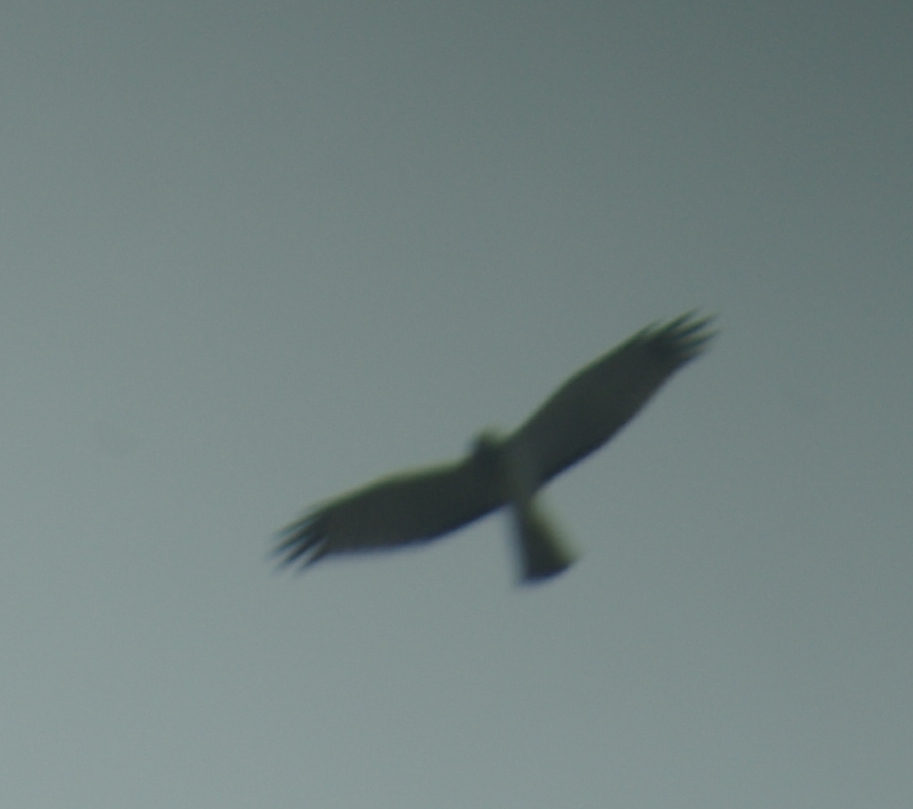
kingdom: Animalia
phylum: Chordata
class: Aves
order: Accipitriformes
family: Accipitridae
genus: Circus
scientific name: Circus cyaneus
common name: Hen harrier
